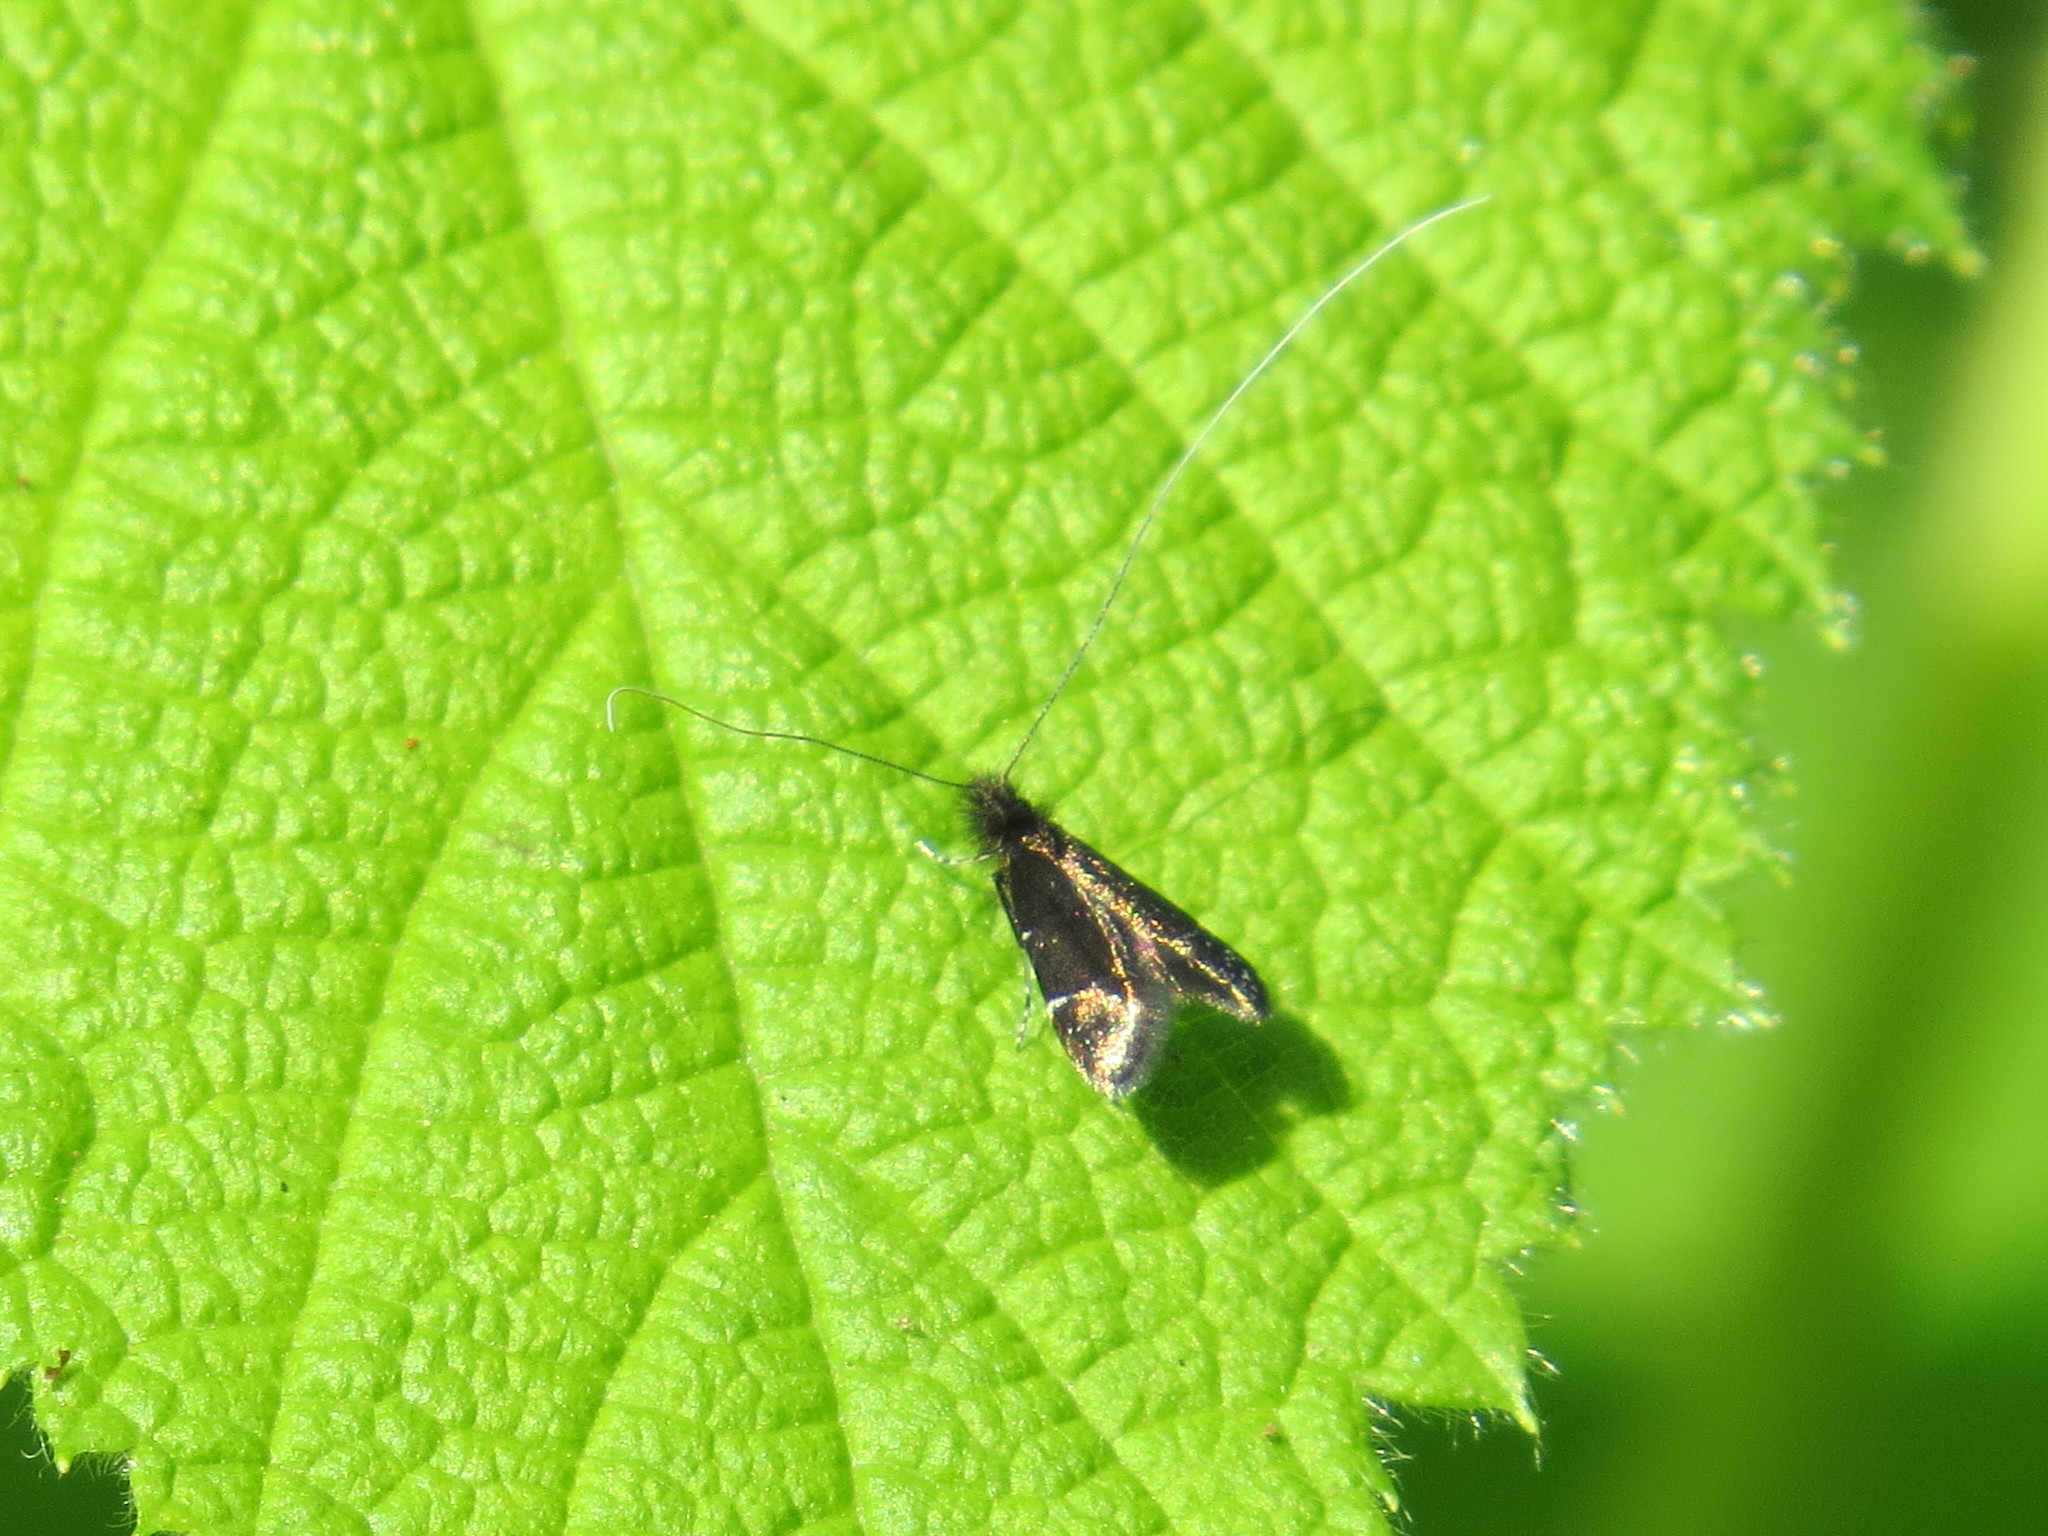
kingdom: Animalia
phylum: Arthropoda
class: Insecta
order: Lepidoptera
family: Adelidae
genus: Adela
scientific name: Adela septentrionella
